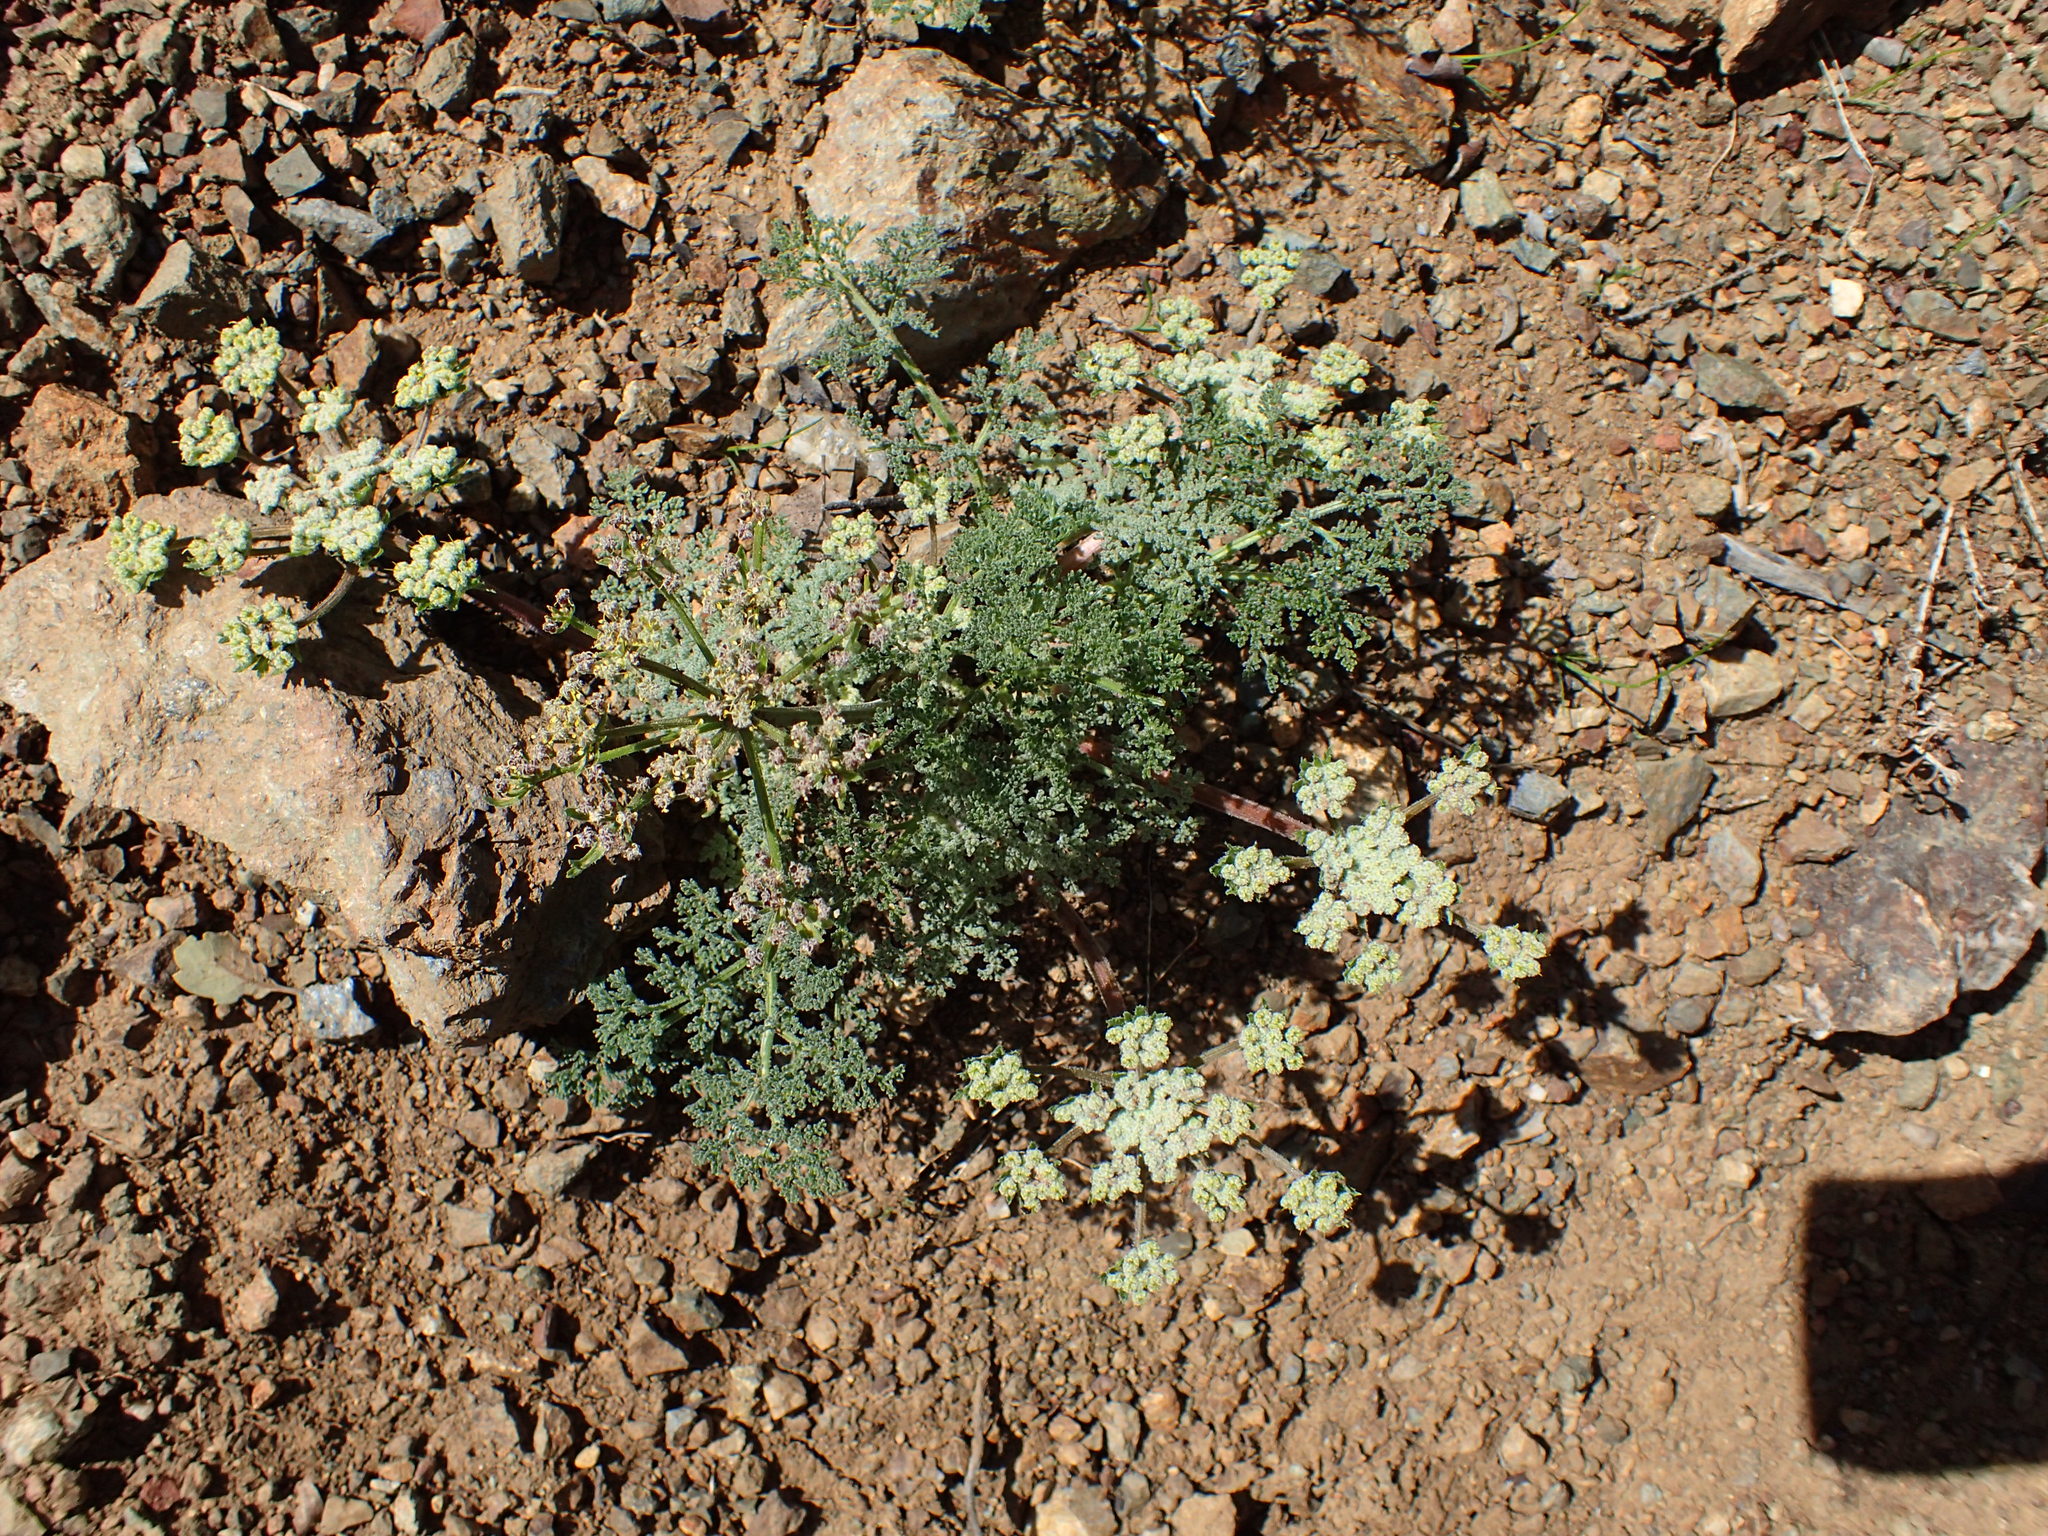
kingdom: Plantae
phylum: Tracheophyta
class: Magnoliopsida
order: Apiales
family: Apiaceae
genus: Lomatium
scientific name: Lomatium dasycarpum
